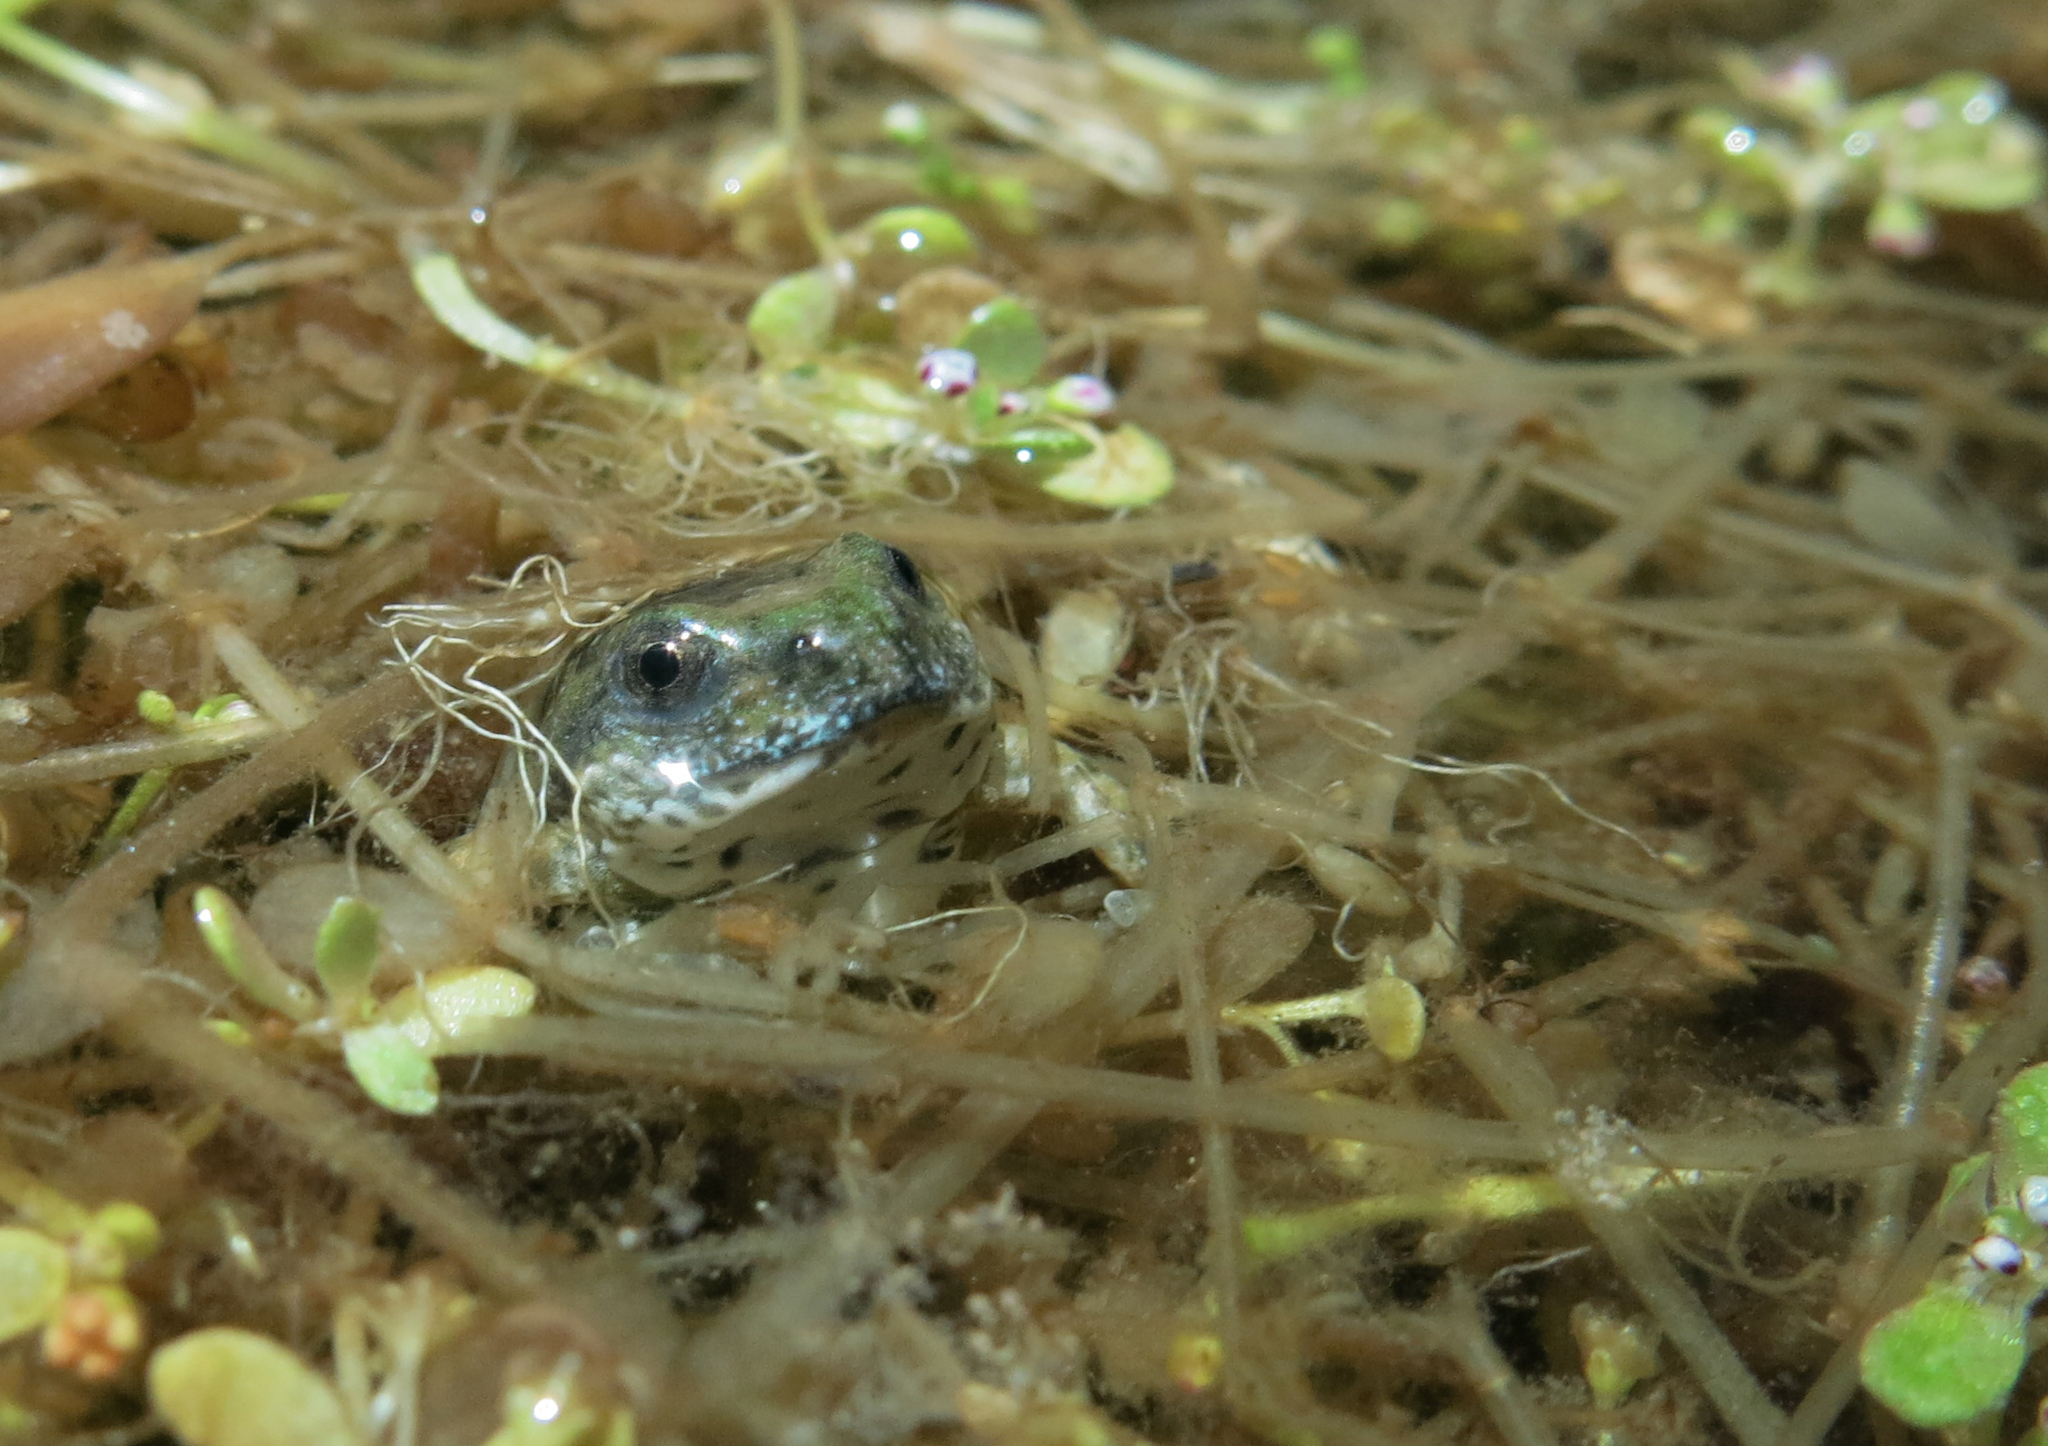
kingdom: Animalia
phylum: Chordata
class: Amphibia
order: Anura
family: Pyxicephalidae
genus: Cacosternum
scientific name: Cacosternum namaquense
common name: Namaqua caco
